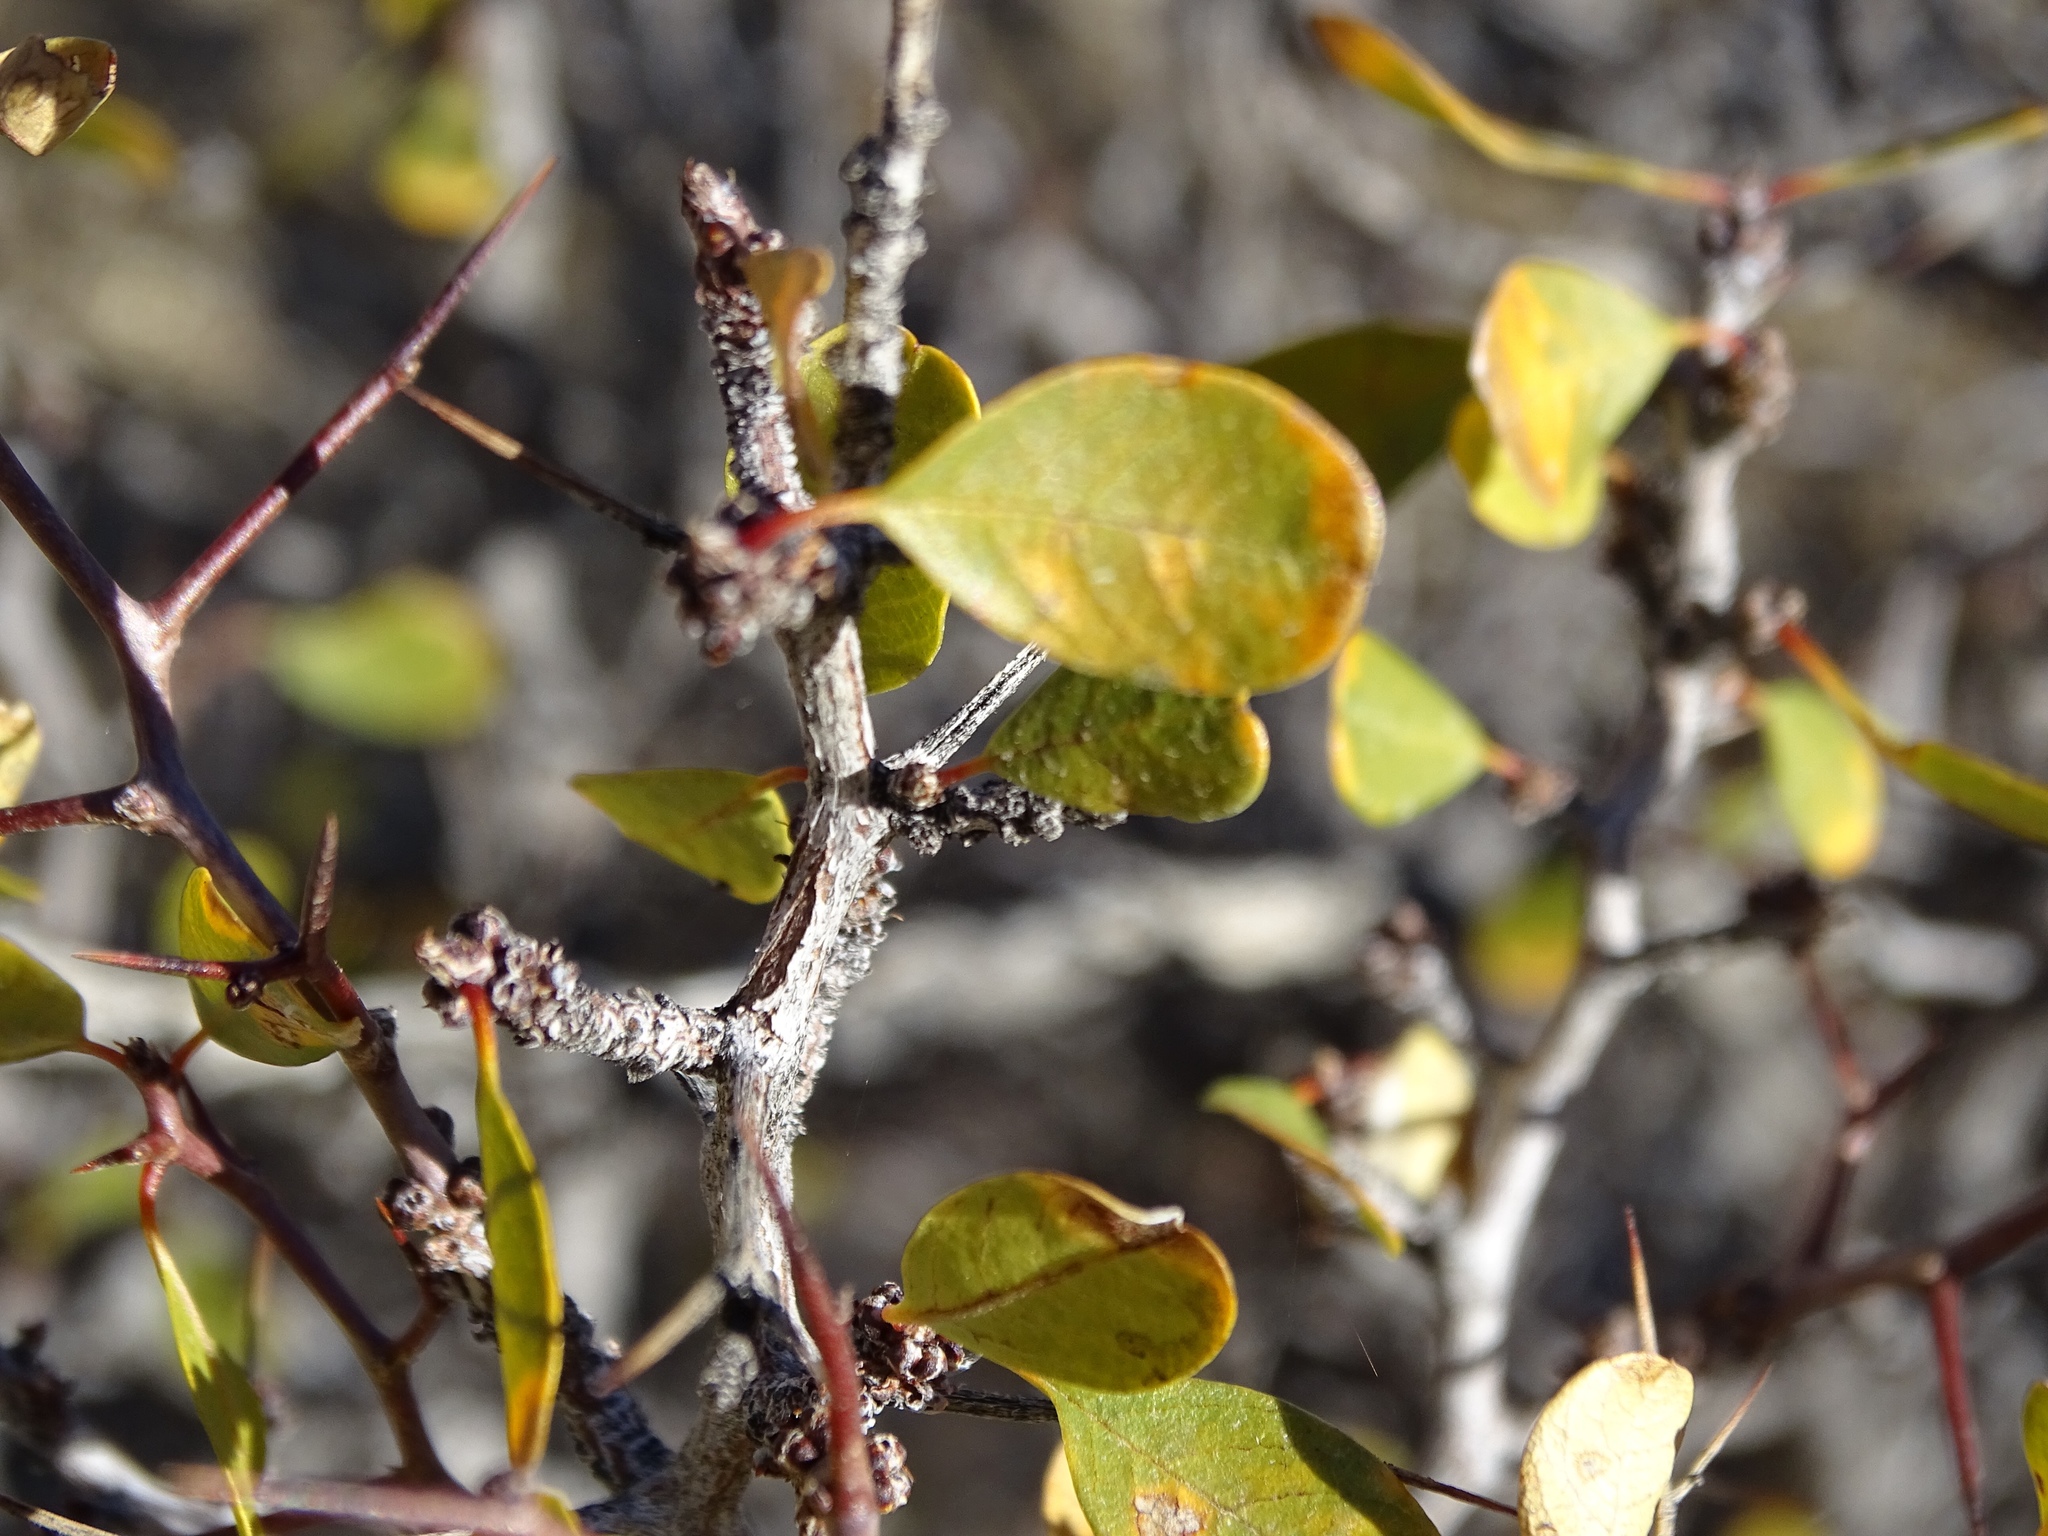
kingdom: Plantae
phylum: Tracheophyta
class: Magnoliopsida
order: Rosales
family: Rhamnaceae
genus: Pseudoziziphus
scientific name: Pseudoziziphus parryi
